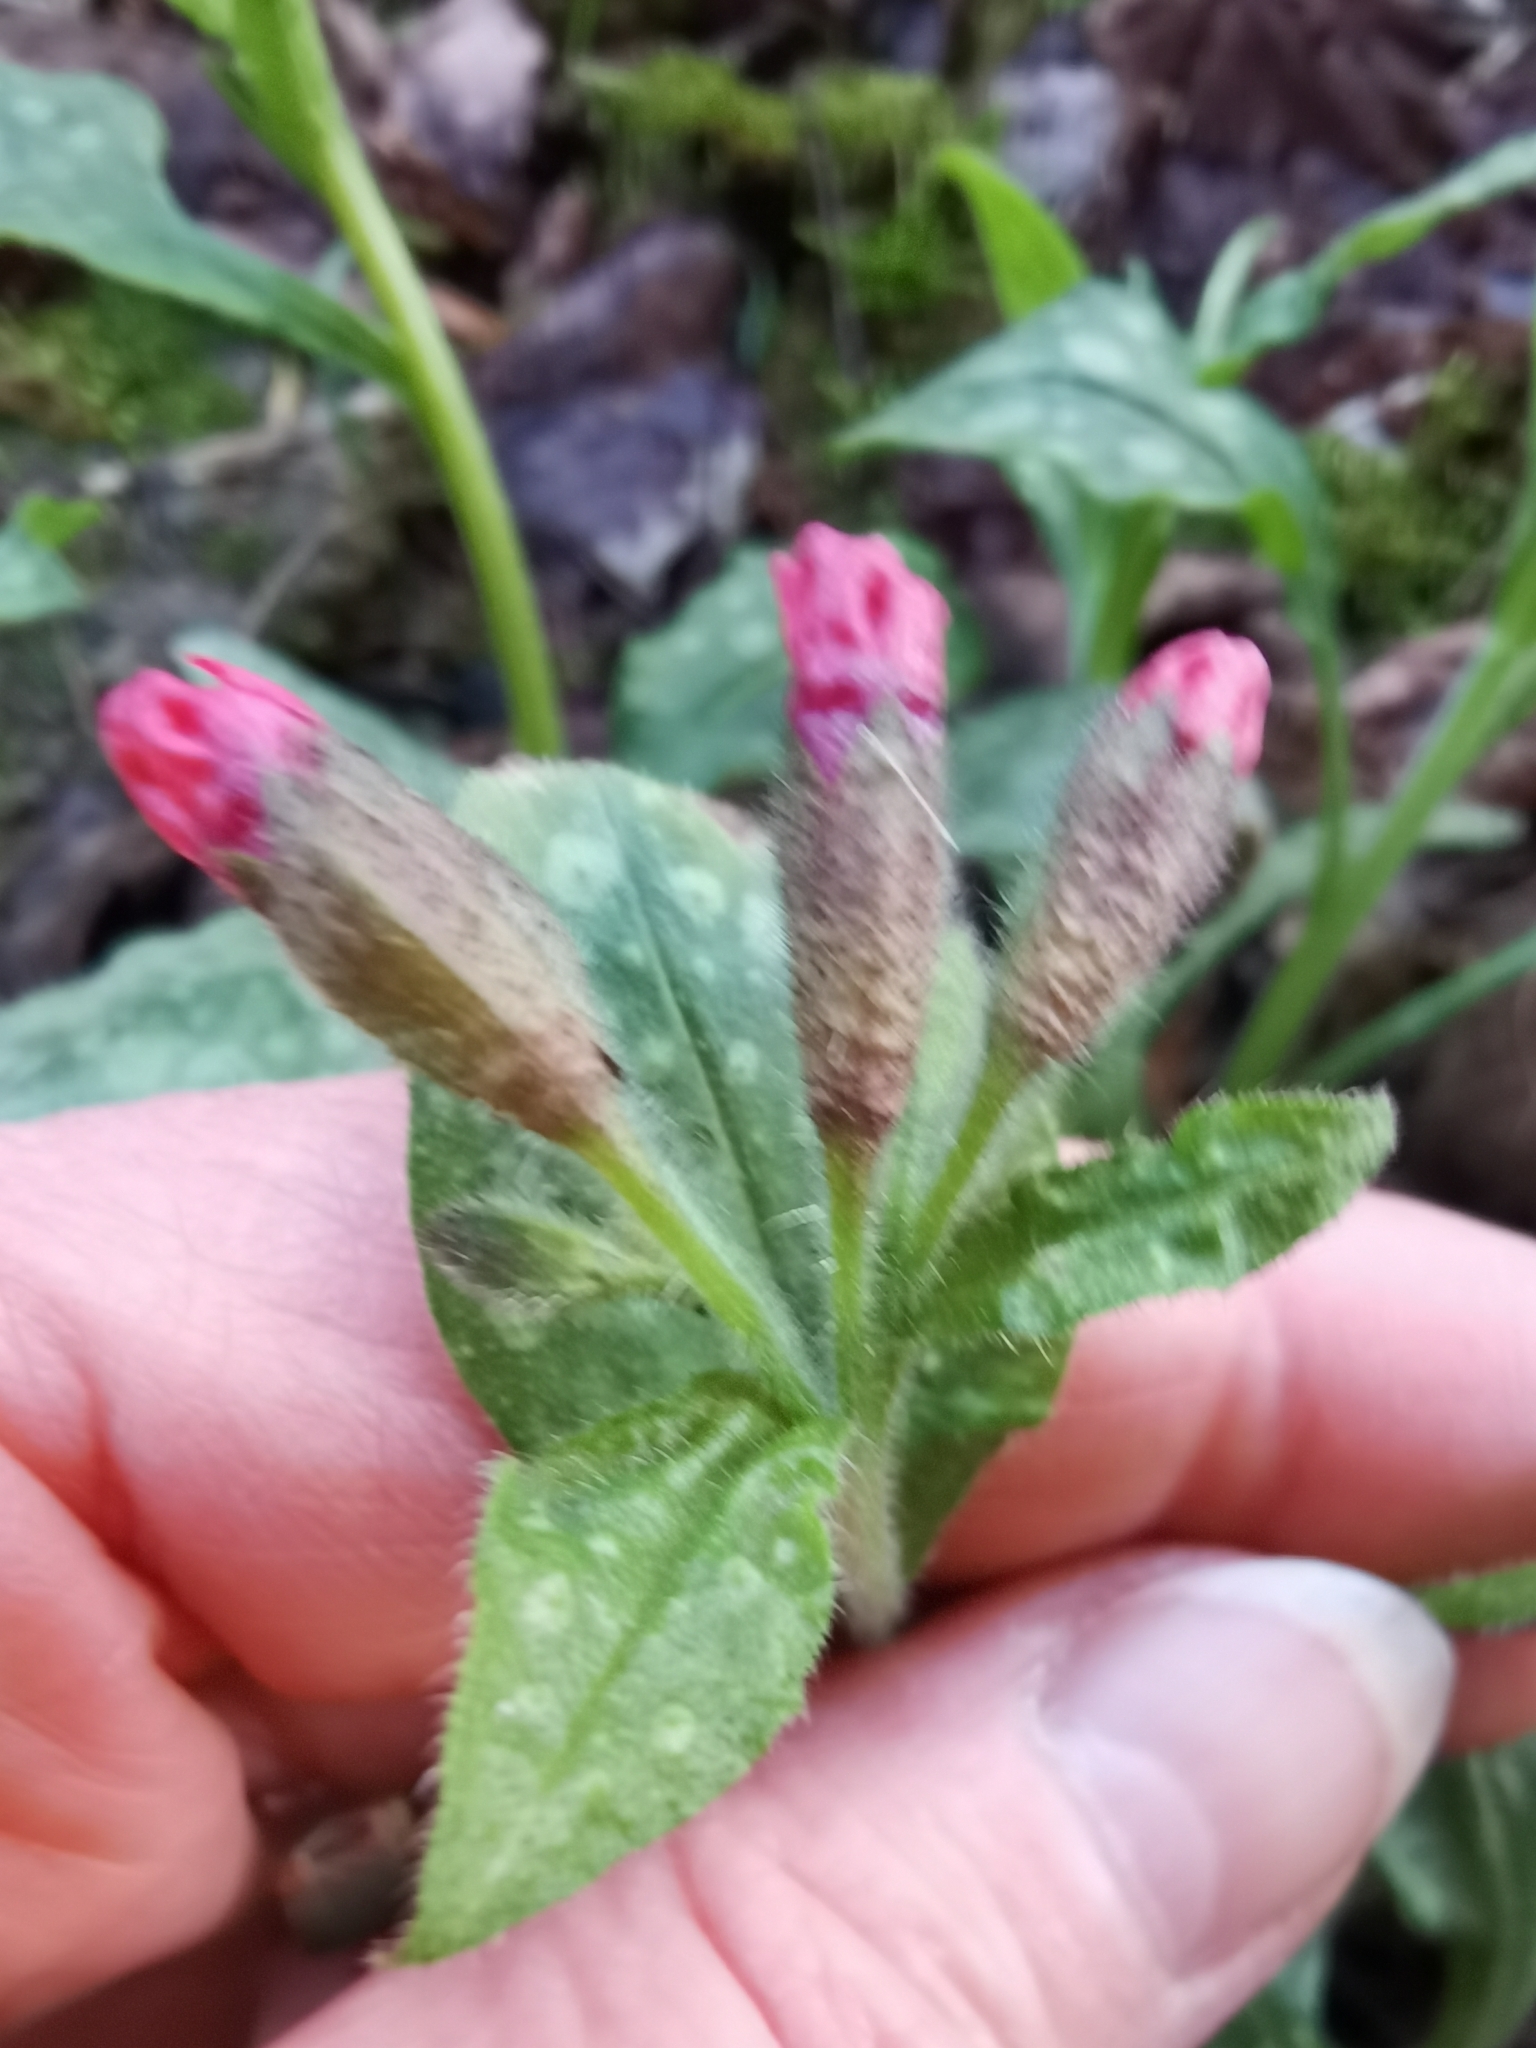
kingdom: Plantae
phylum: Tracheophyta
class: Magnoliopsida
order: Boraginales
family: Boraginaceae
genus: Pulmonaria
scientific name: Pulmonaria officinalis
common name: Lungwort
